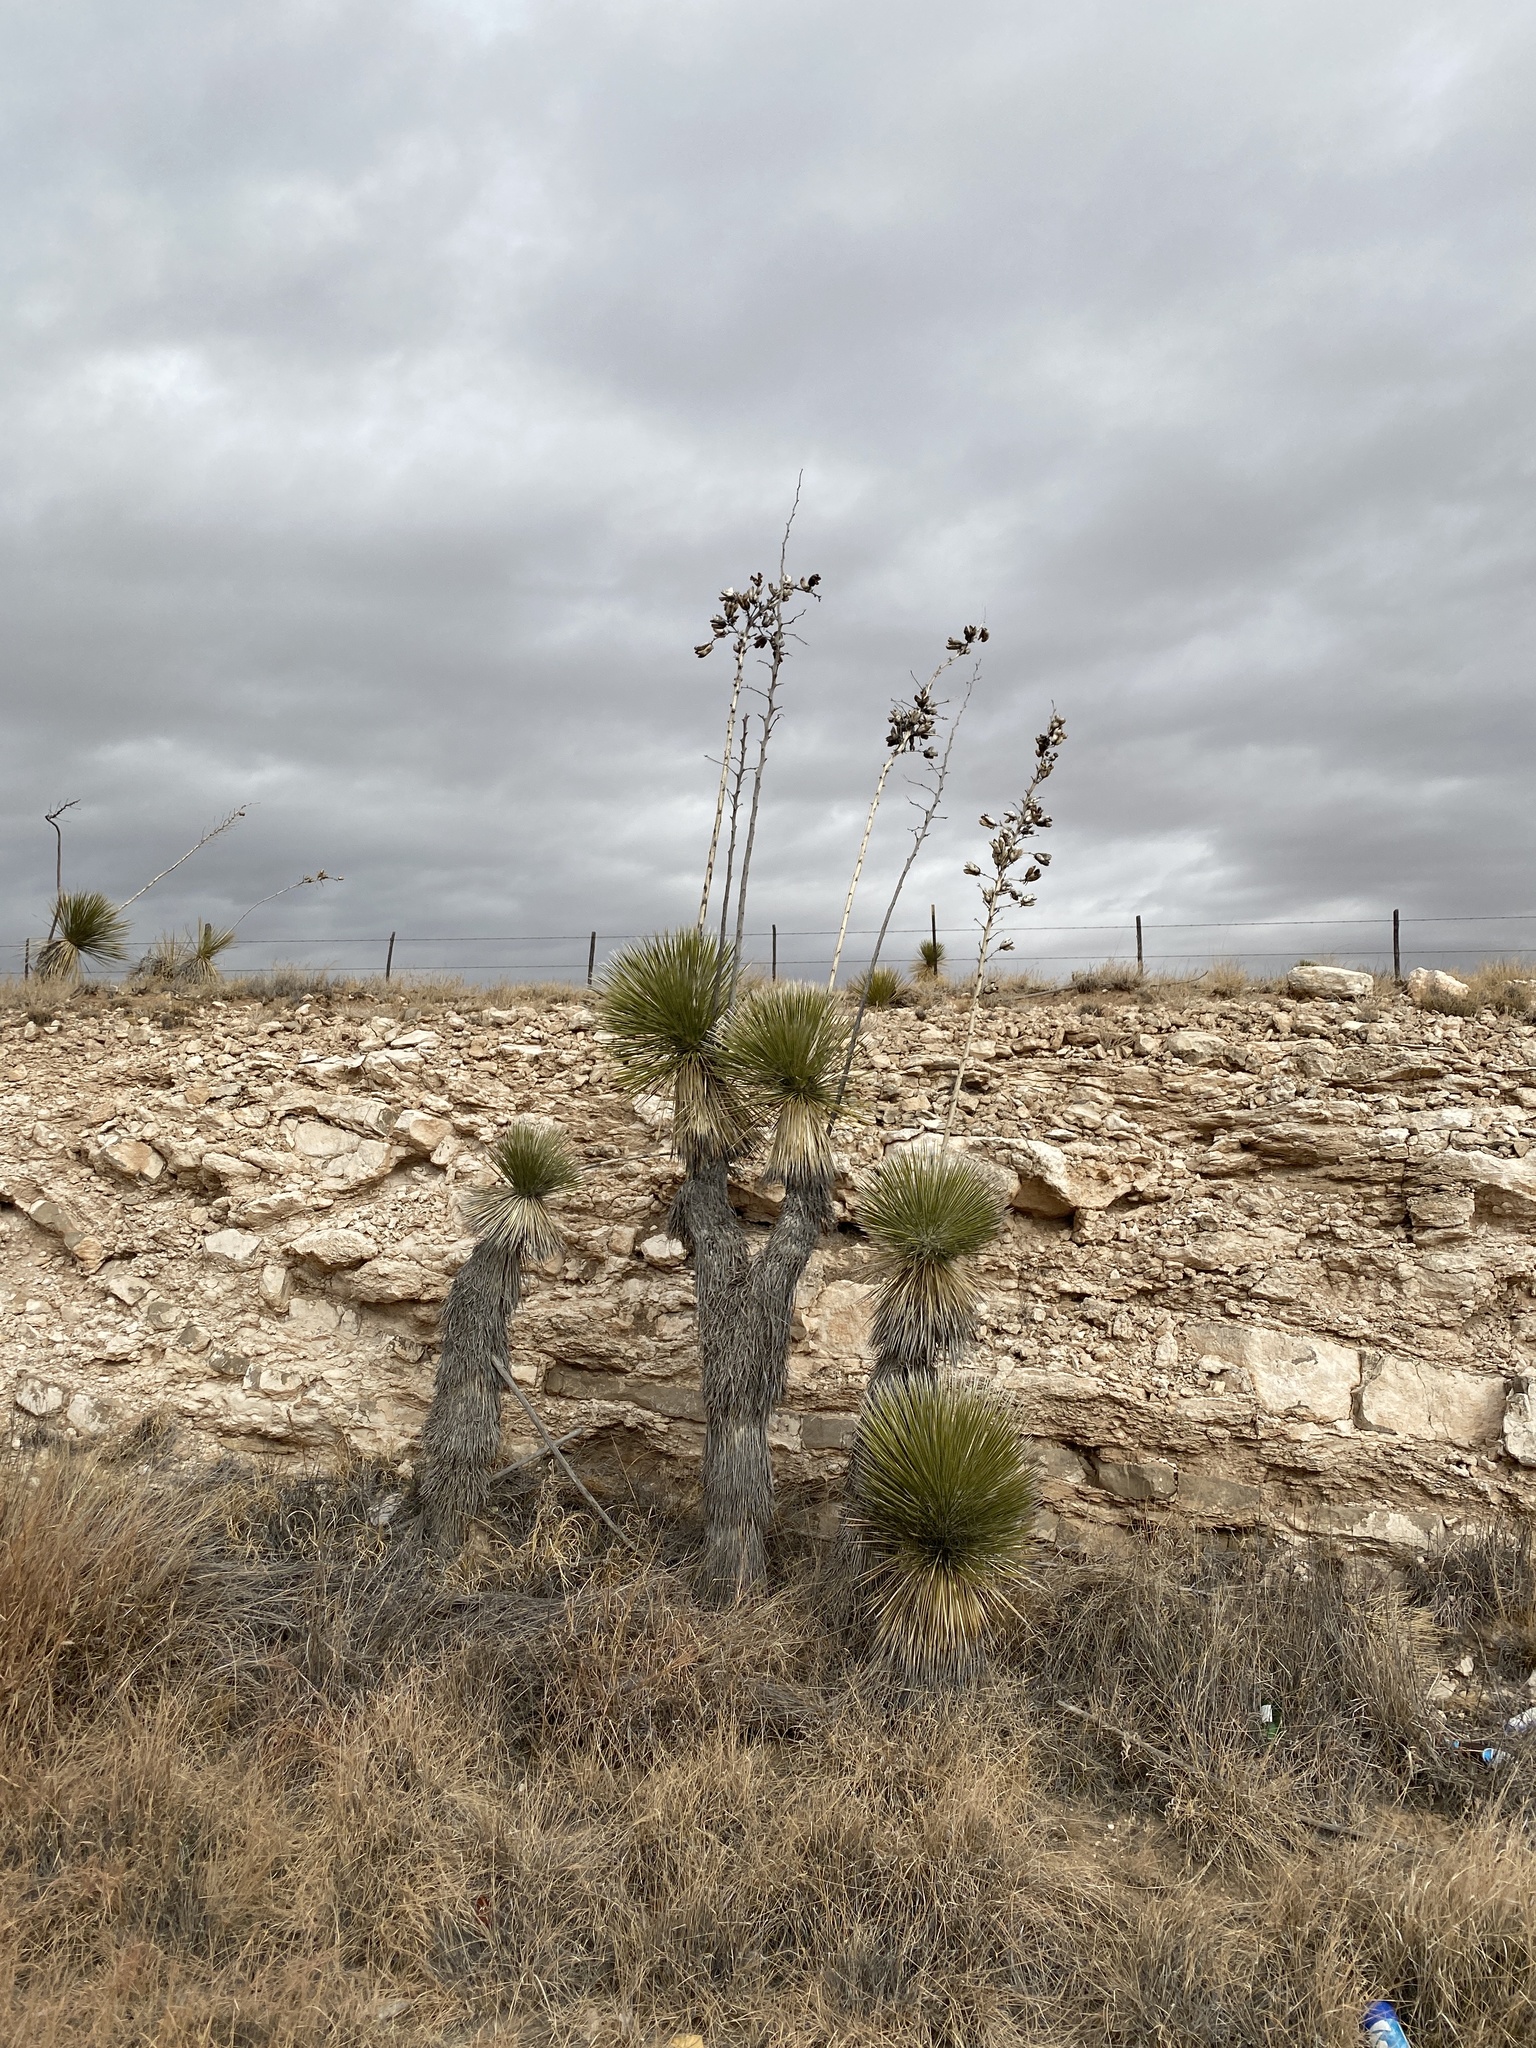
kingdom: Plantae
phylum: Tracheophyta
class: Liliopsida
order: Asparagales
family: Asparagaceae
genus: Yucca
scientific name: Yucca elata
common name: Palmella
